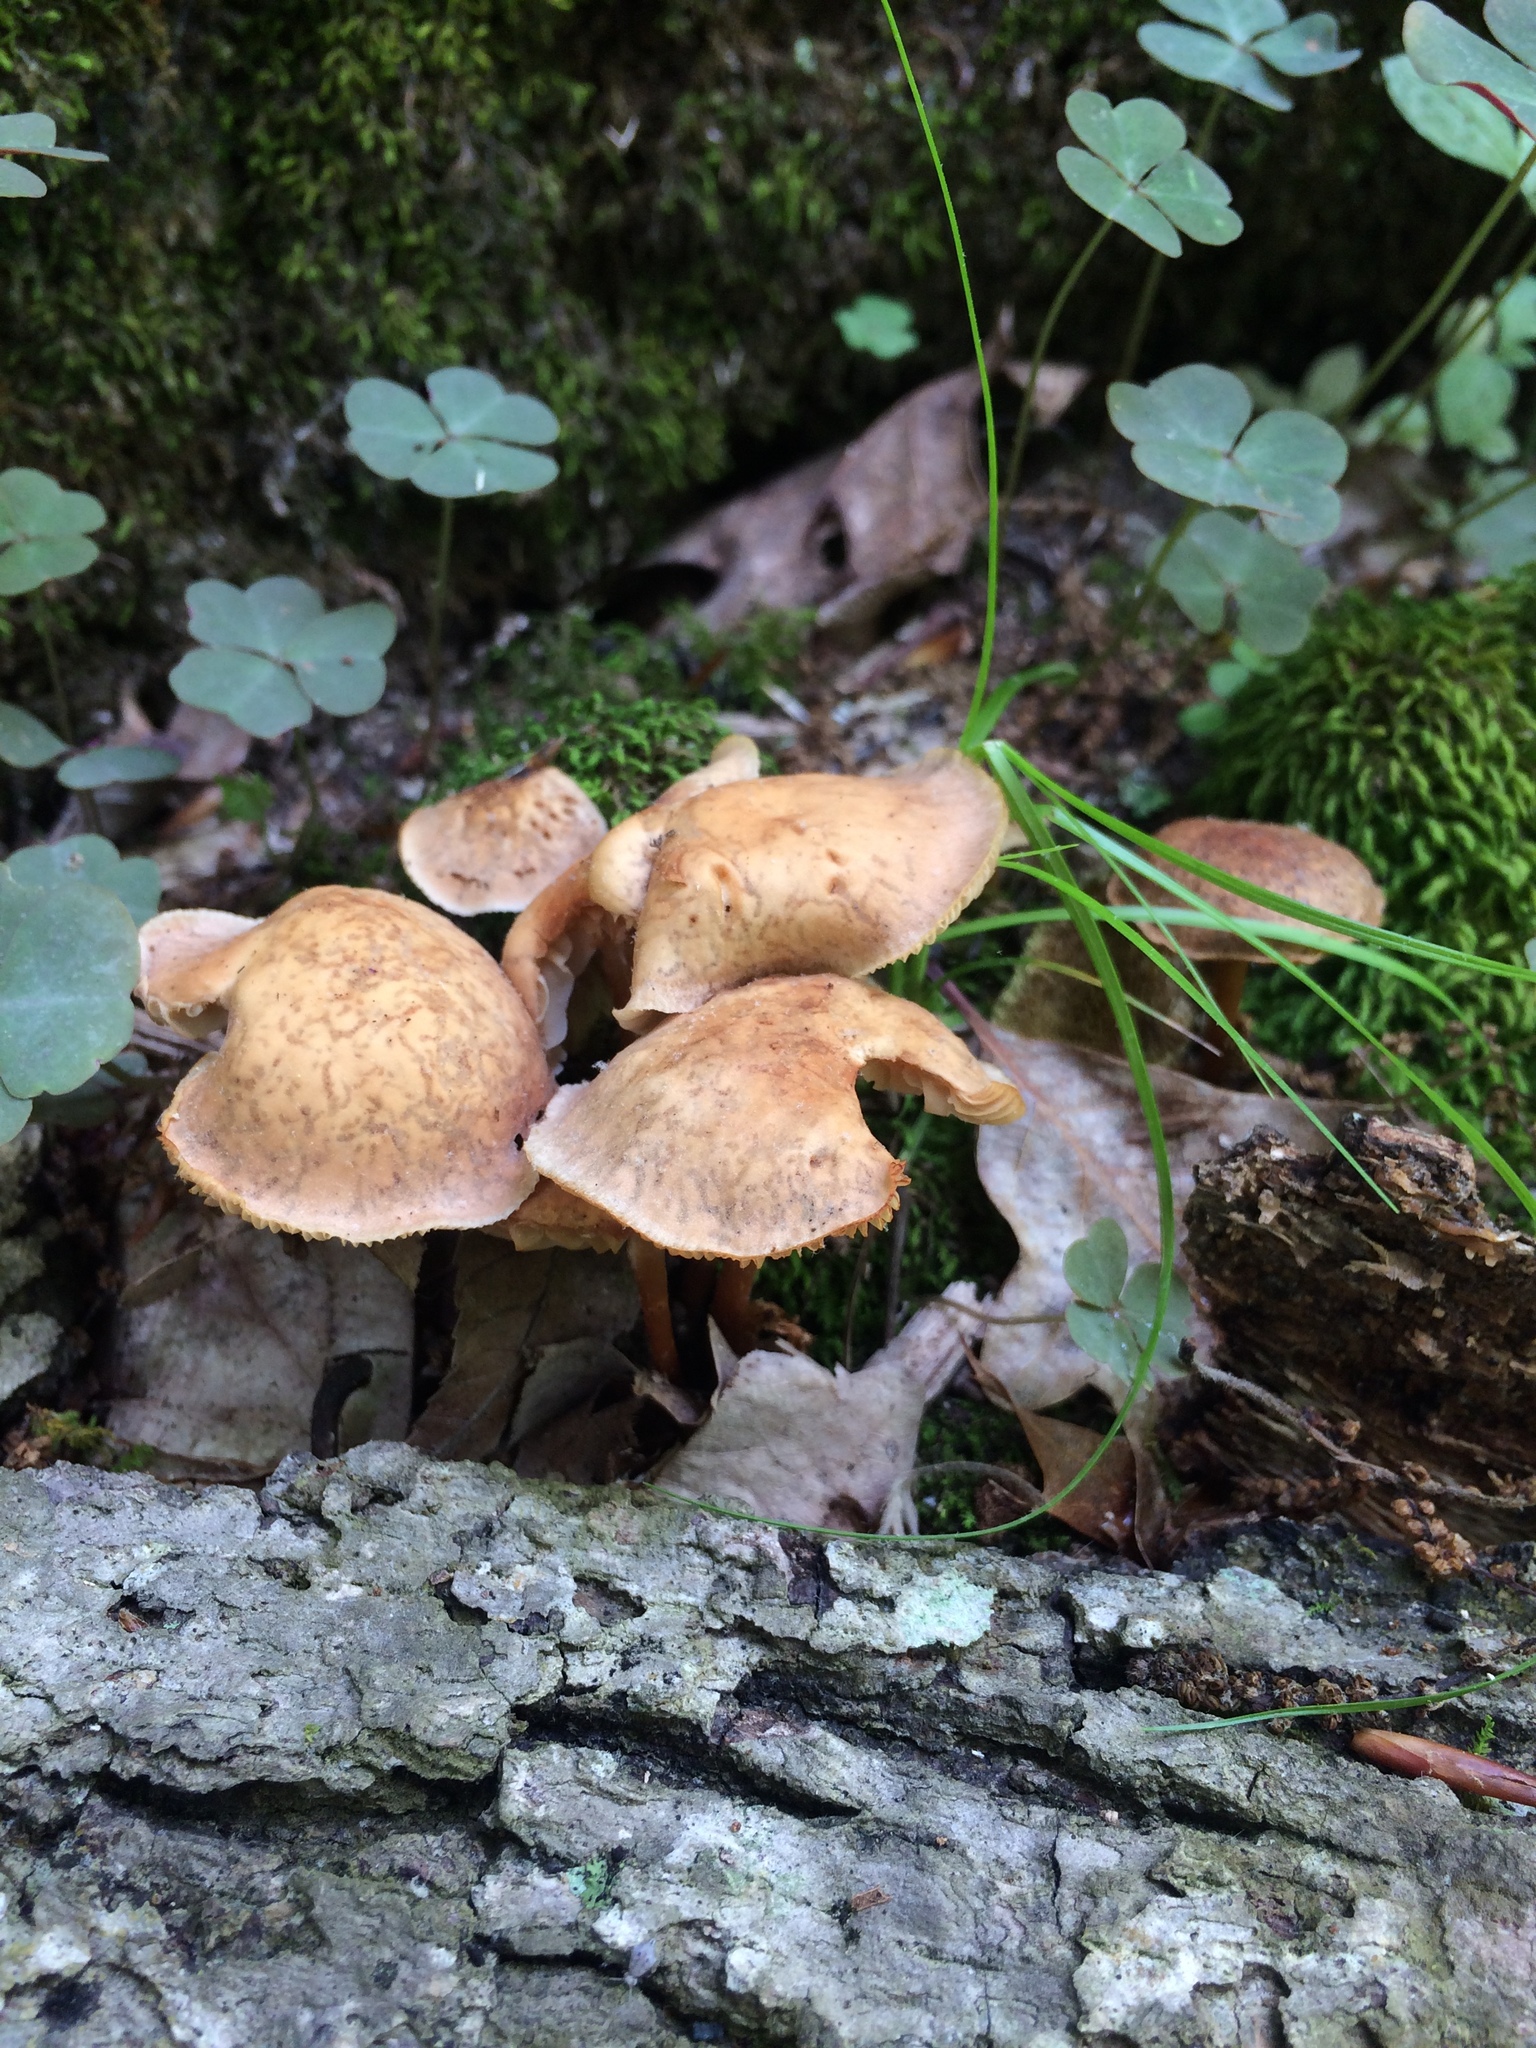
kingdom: Fungi
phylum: Basidiomycota
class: Agaricomycetes
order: Agaricales
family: Omphalotaceae
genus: Gymnopus
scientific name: Gymnopus earleae
